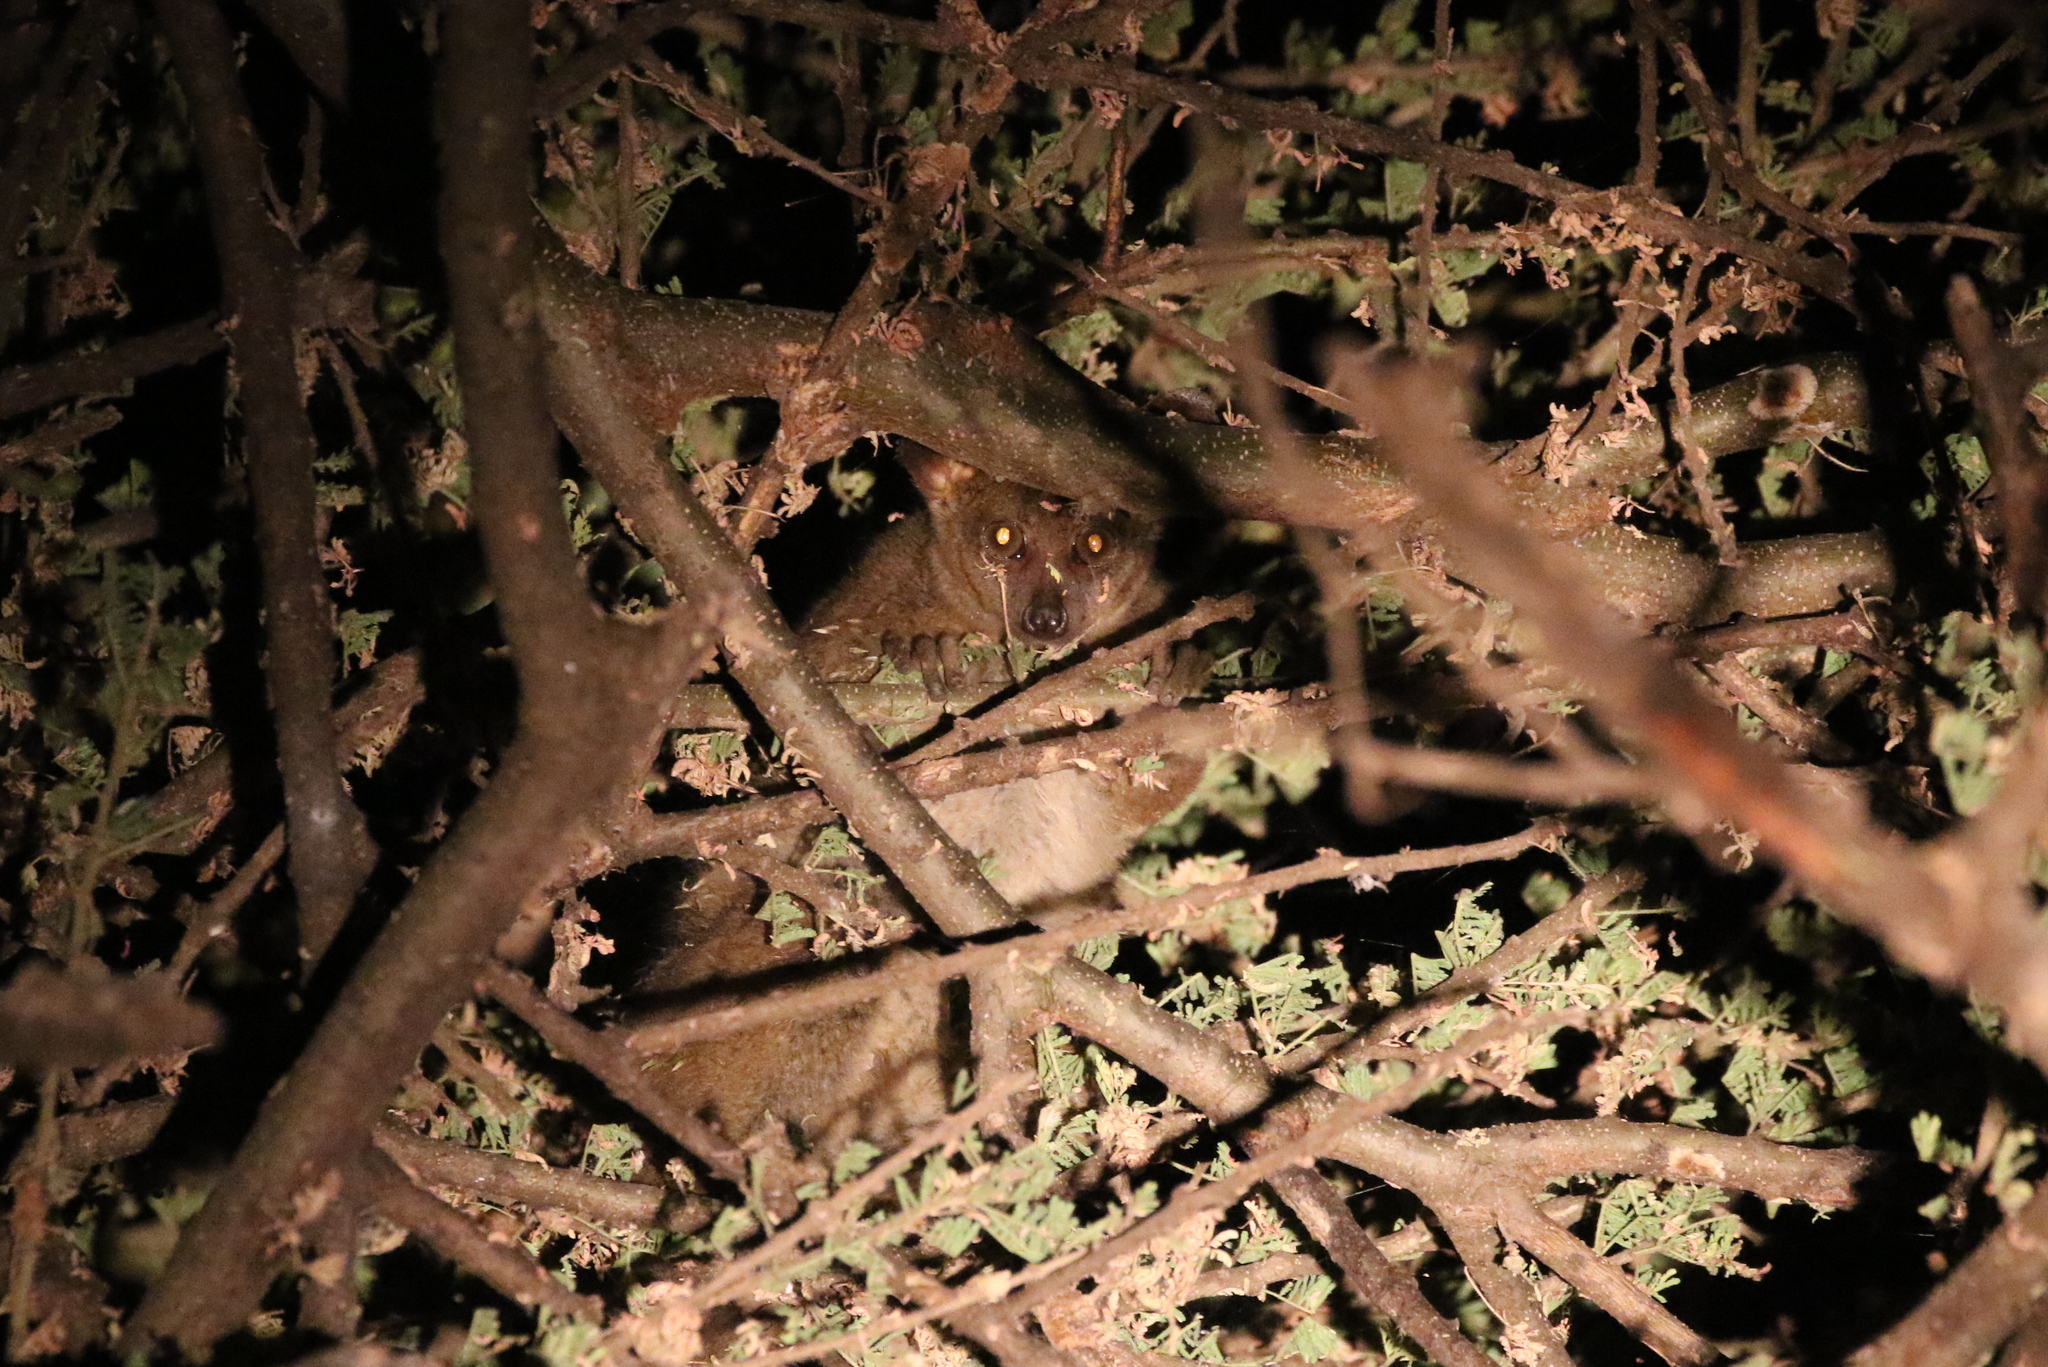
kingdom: Animalia
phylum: Chordata
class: Mammalia
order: Primates
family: Galagidae
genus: Otolemur
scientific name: Otolemur garnettii
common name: Northern greater galago
